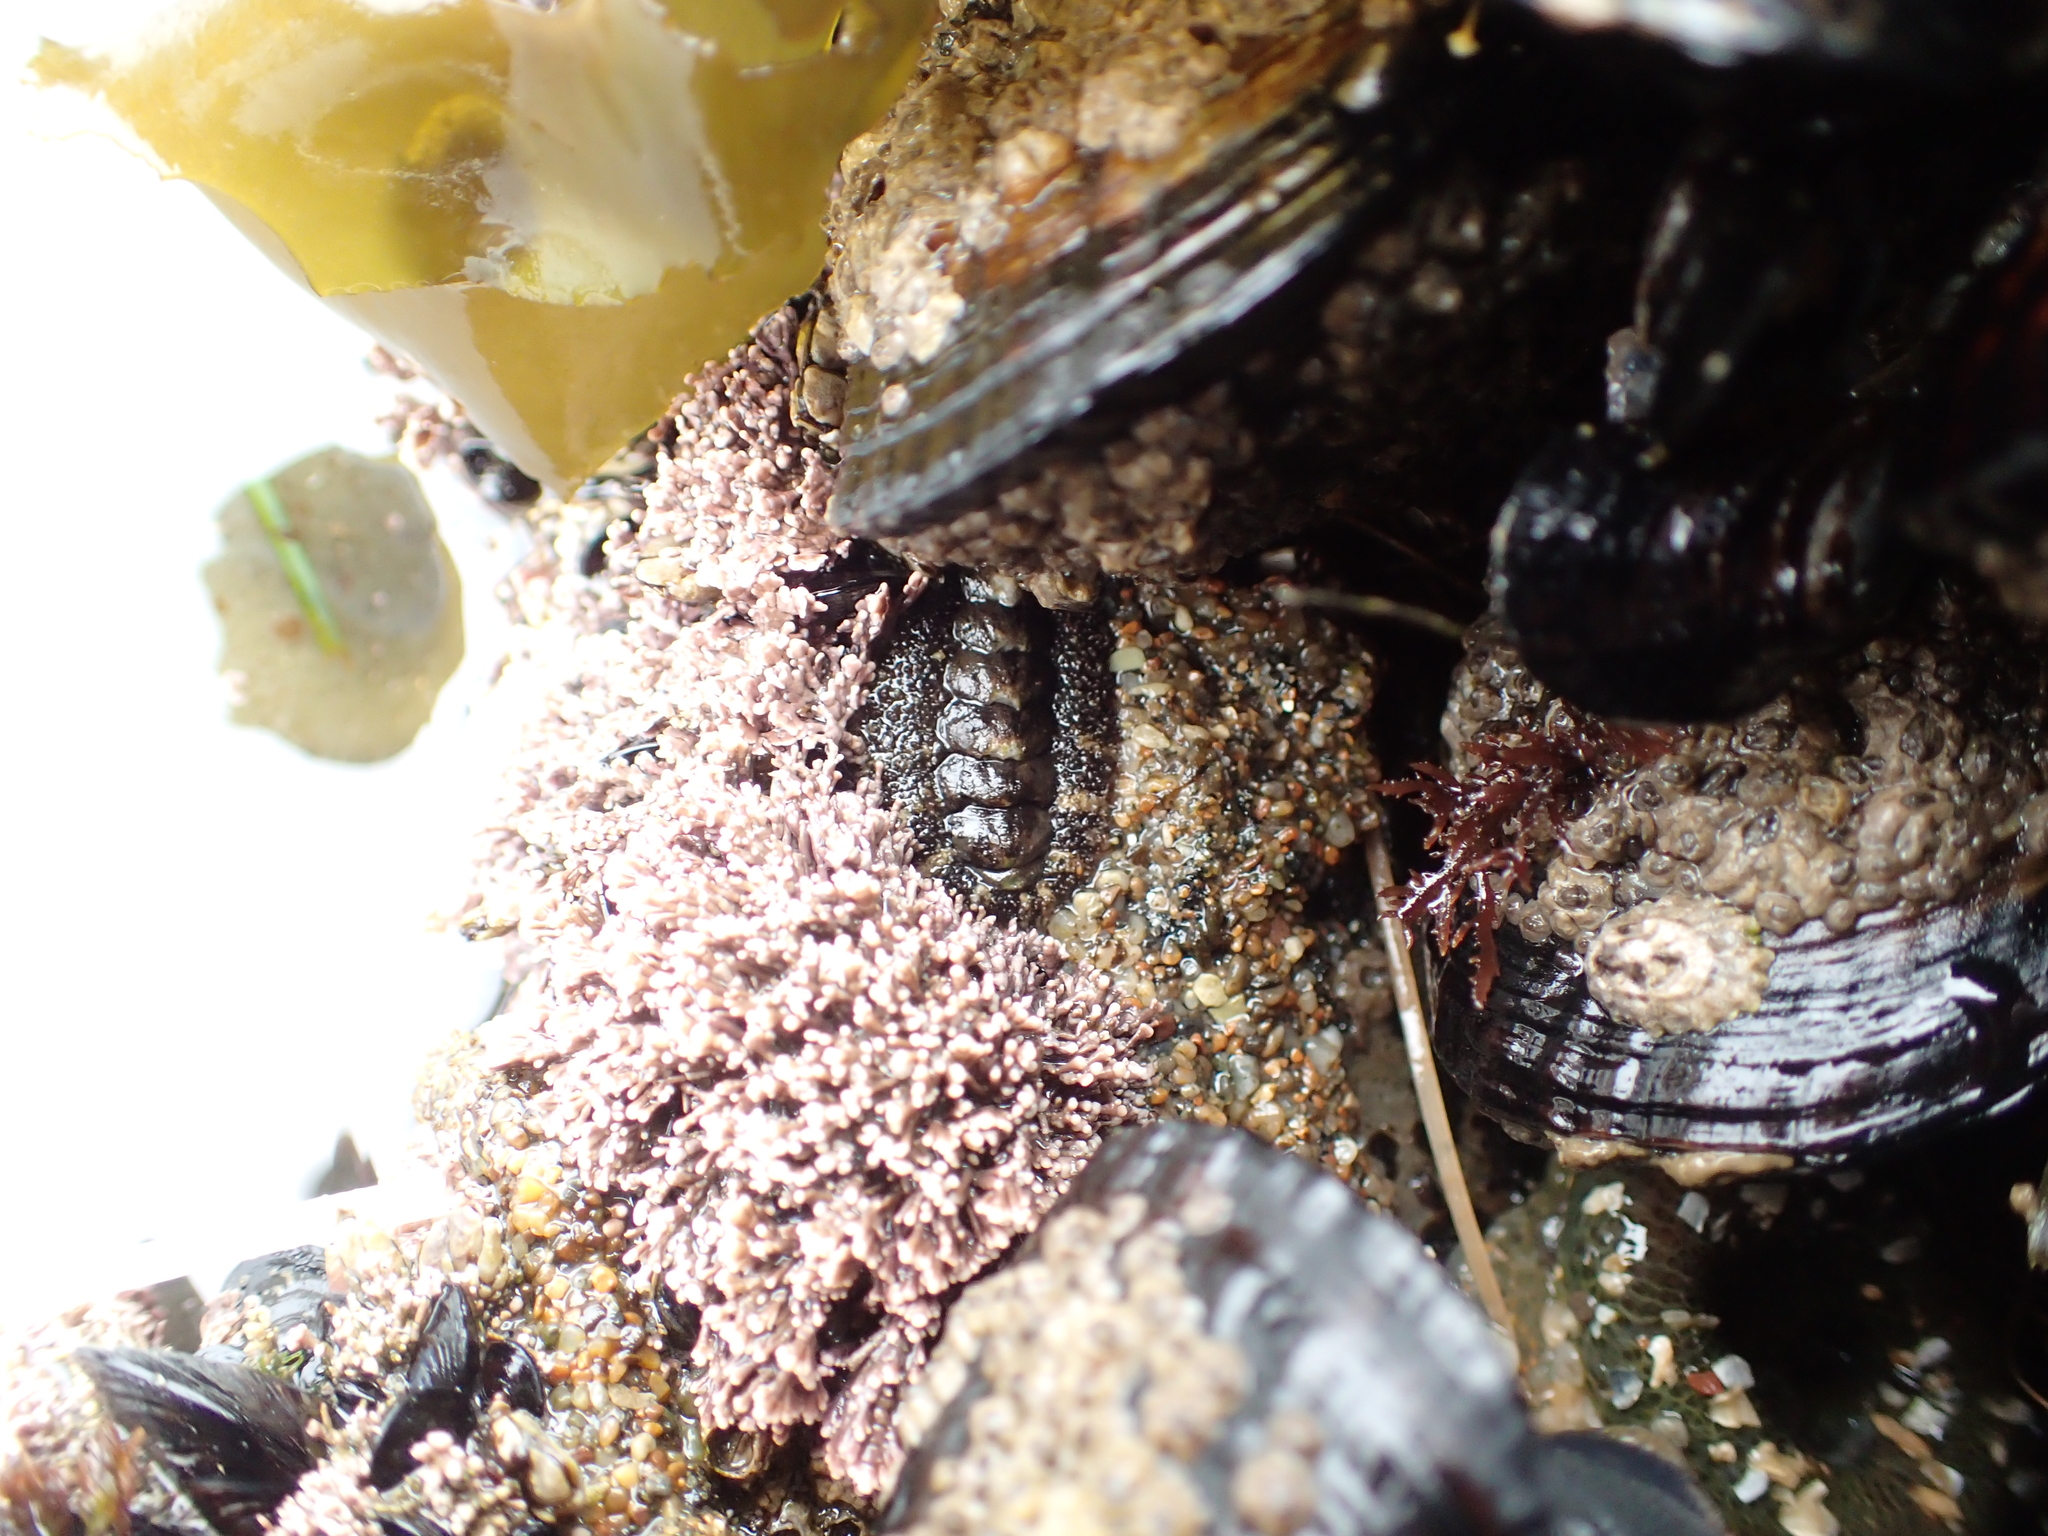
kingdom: Animalia
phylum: Mollusca
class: Polyplacophora
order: Chitonida
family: Tonicellidae
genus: Nuttallina
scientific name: Nuttallina californica
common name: California nuttall chiton
